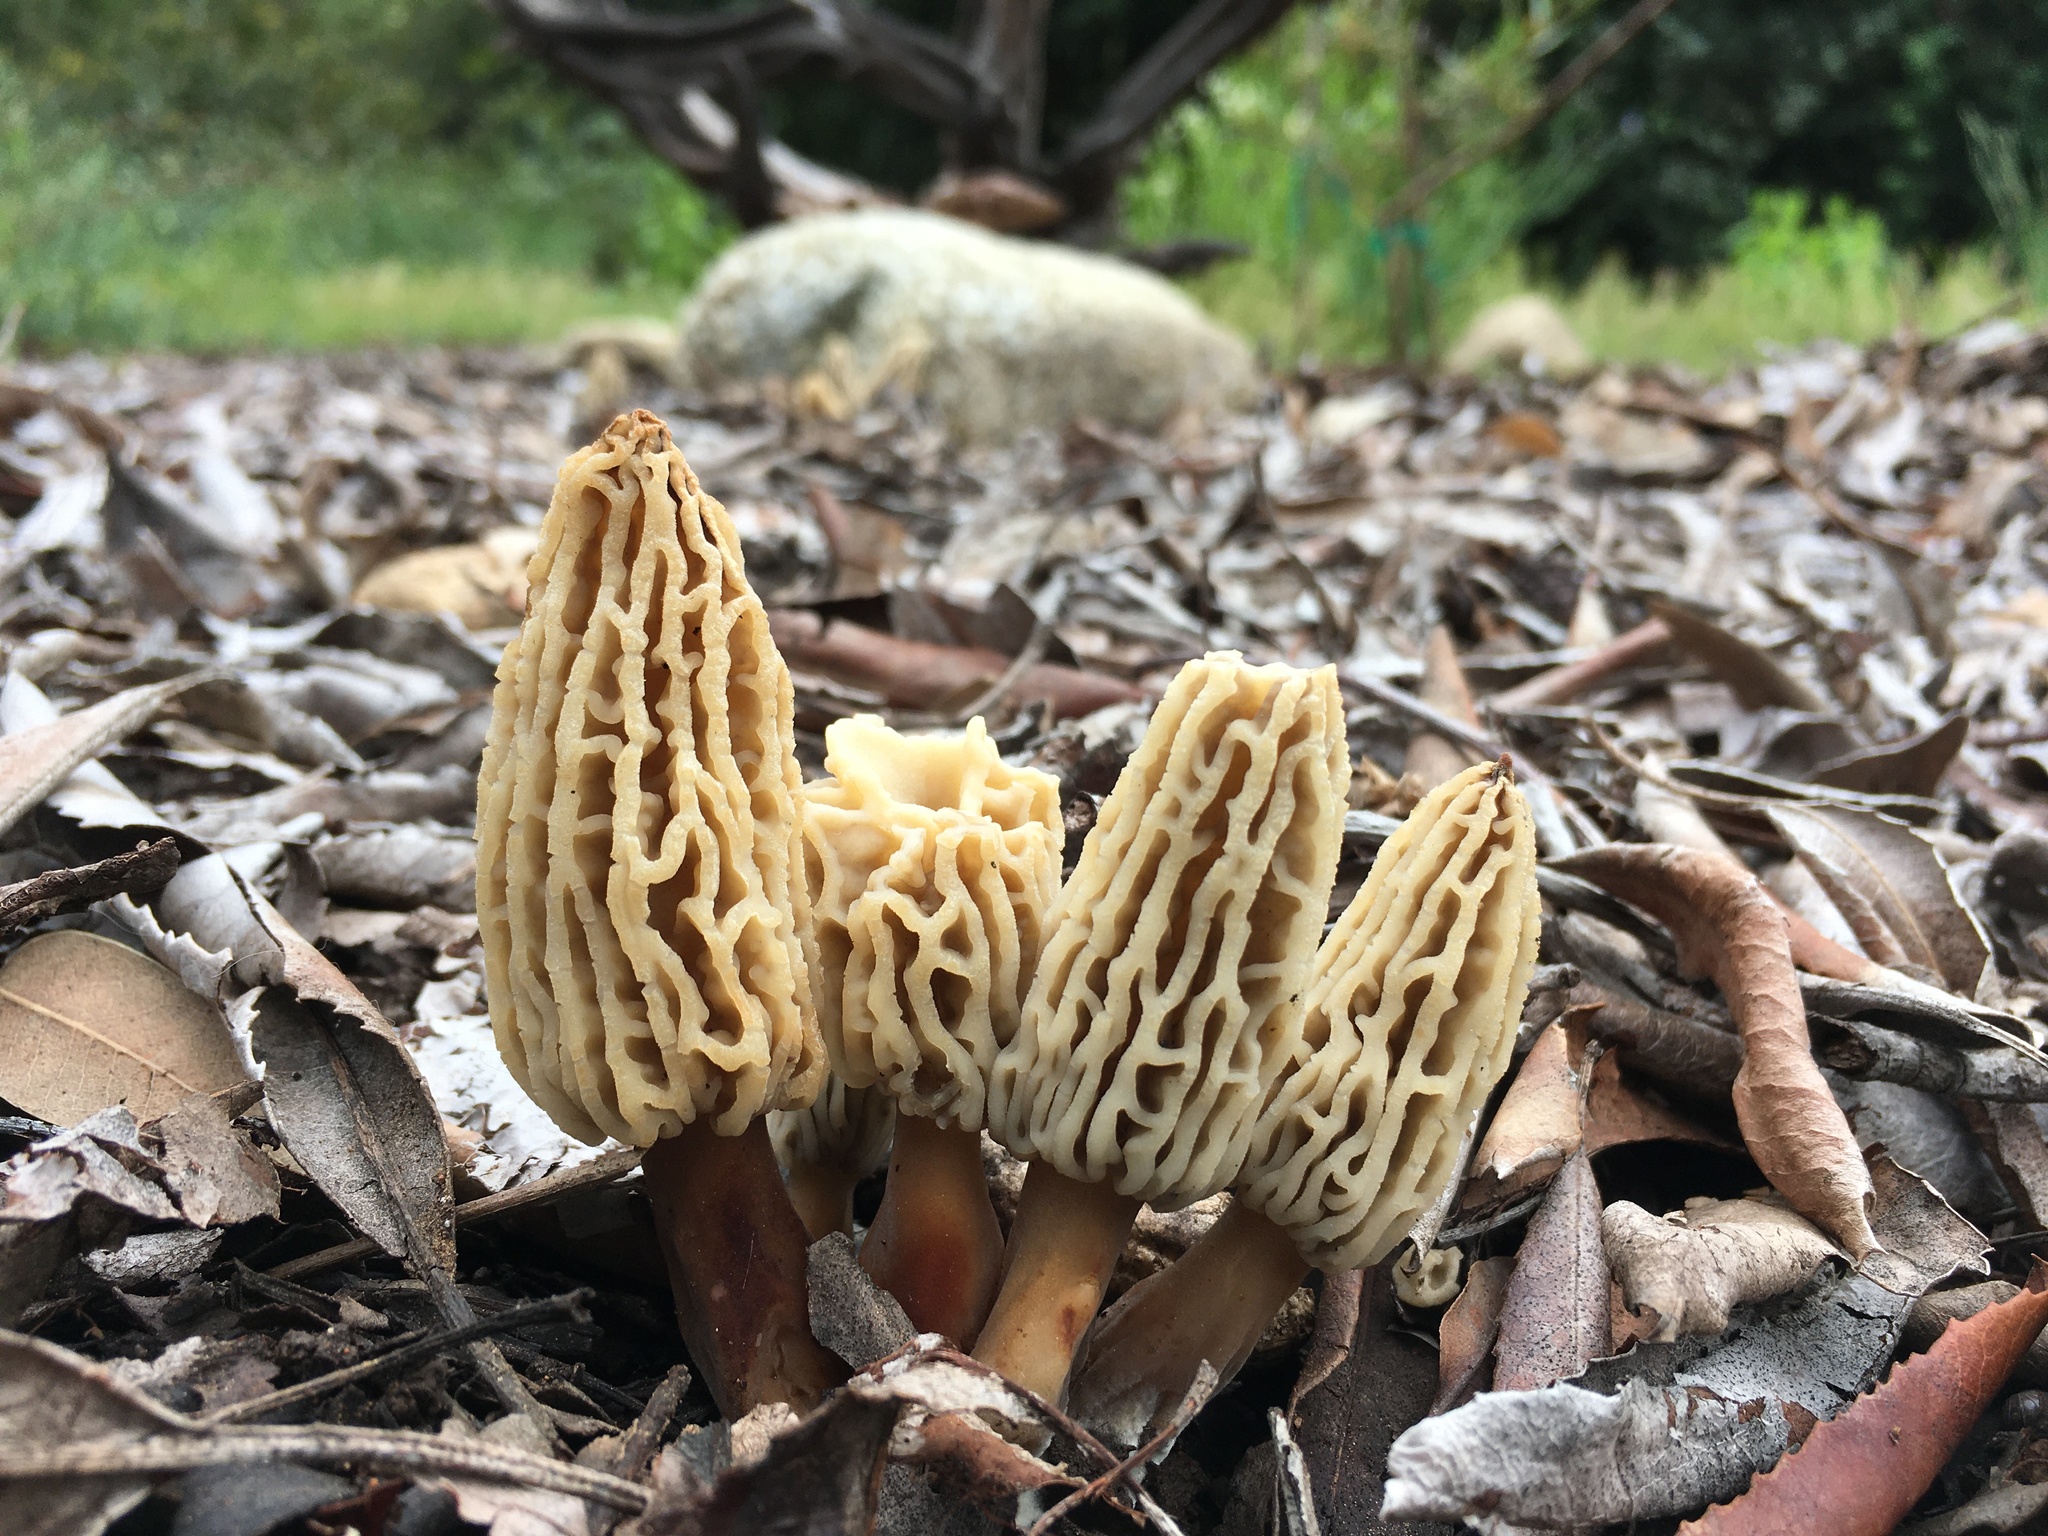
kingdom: Fungi
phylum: Ascomycota
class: Pezizomycetes
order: Pezizales
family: Morchellaceae
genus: Morchella
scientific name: Morchella rufobrunnea
